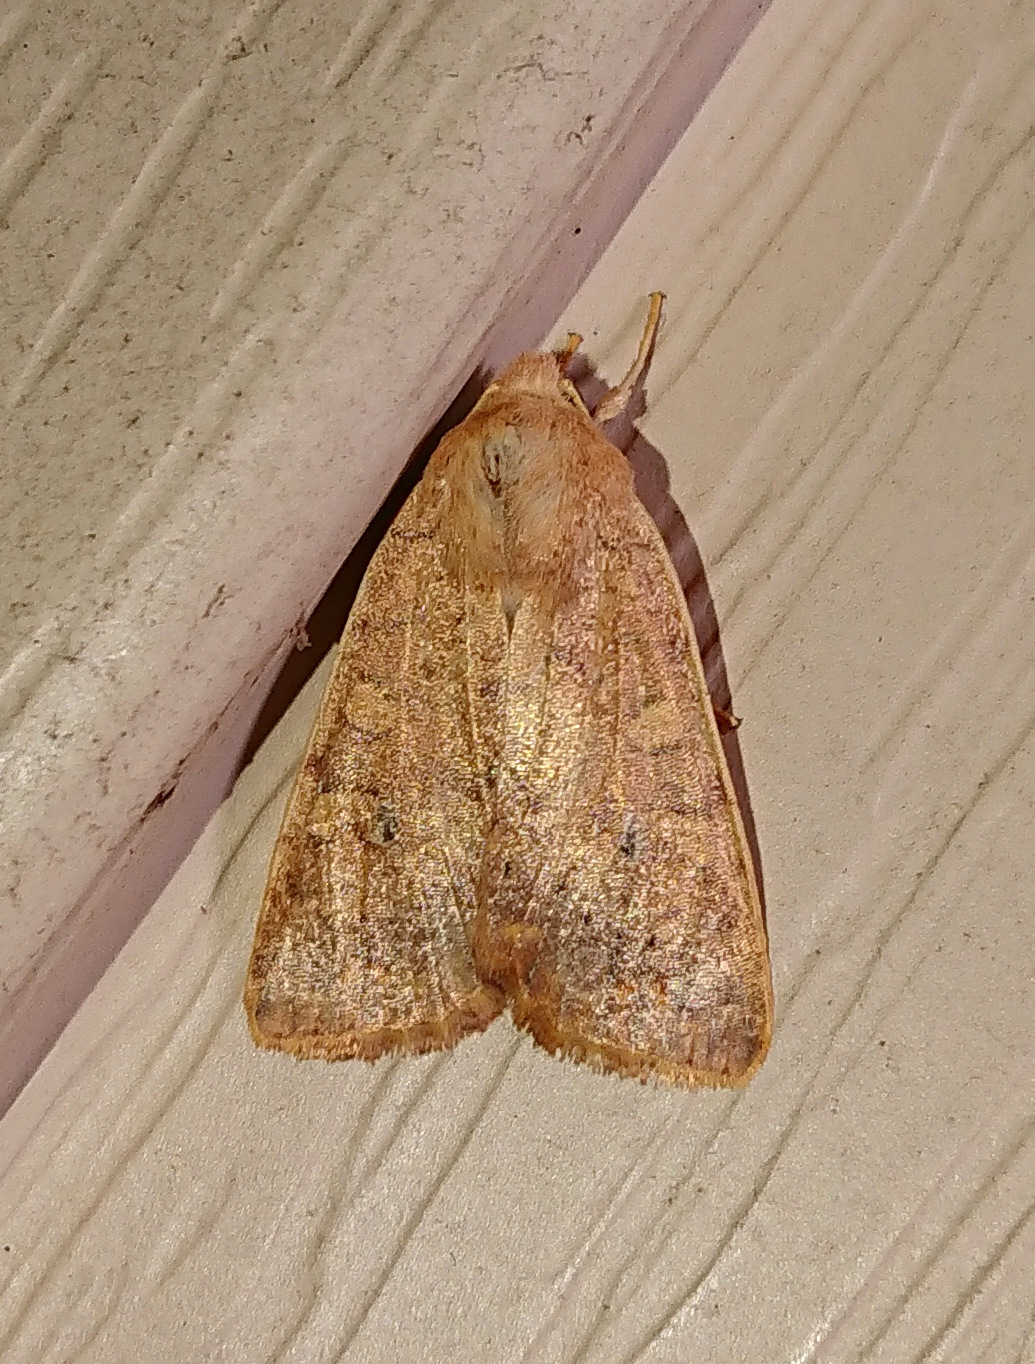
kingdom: Animalia
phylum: Arthropoda
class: Insecta
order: Lepidoptera
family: Noctuidae
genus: Agrochola
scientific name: Agrochola bicolorago
